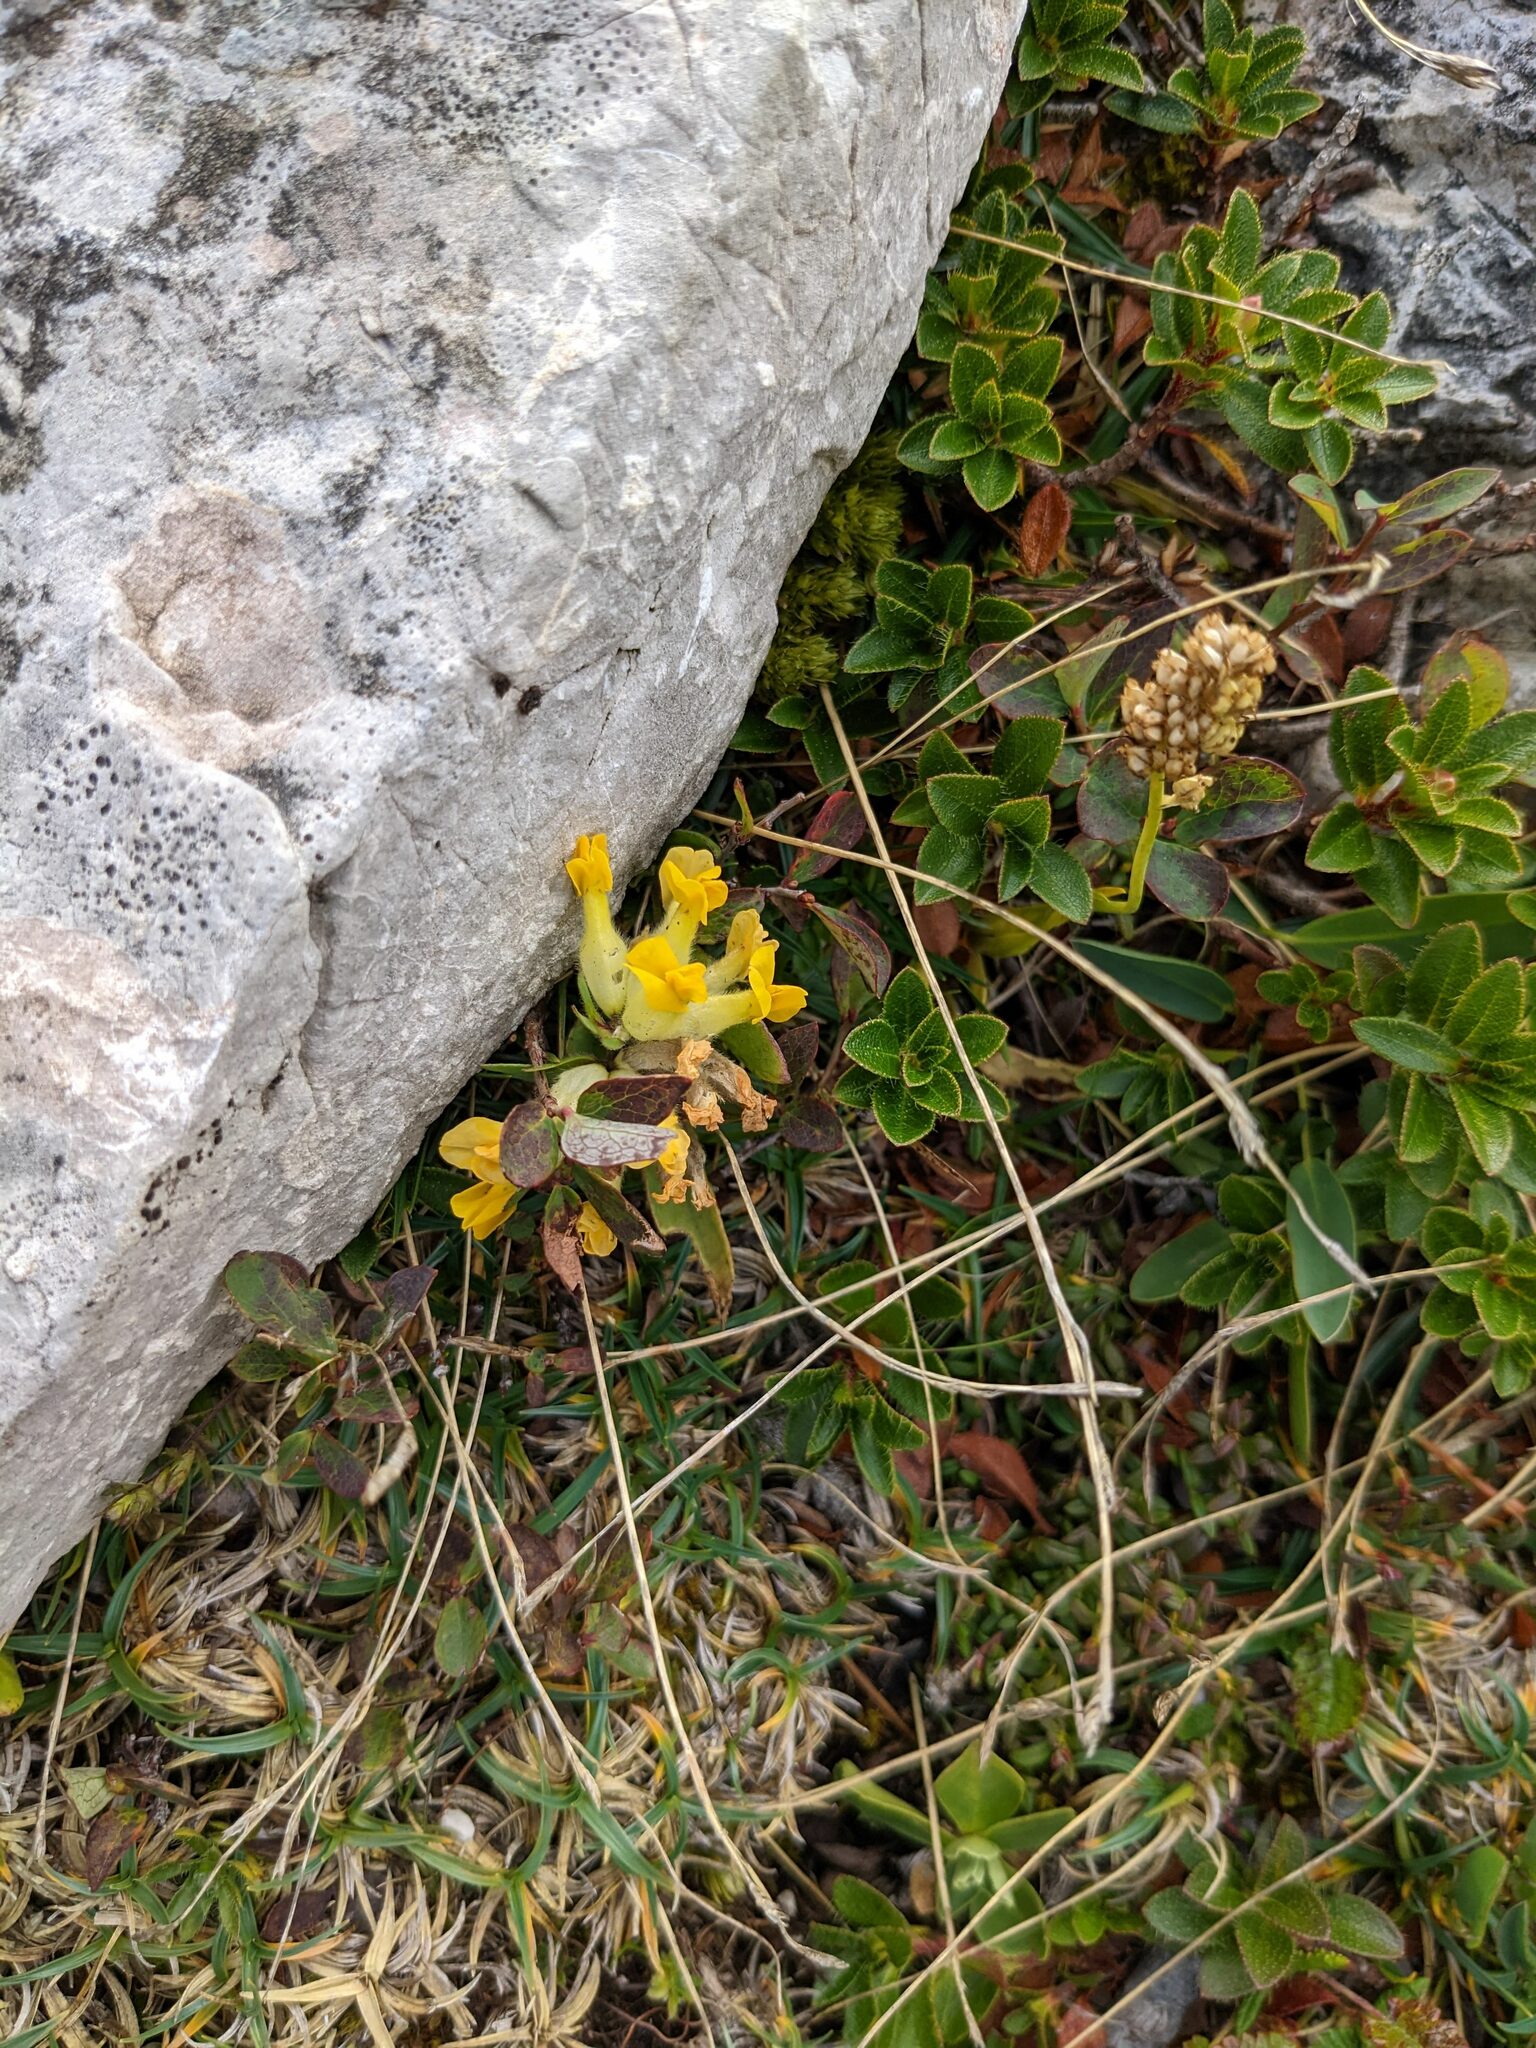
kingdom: Plantae
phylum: Tracheophyta
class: Magnoliopsida
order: Fabales
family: Fabaceae
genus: Anthyllis
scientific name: Anthyllis vulneraria
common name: Kidney vetch
